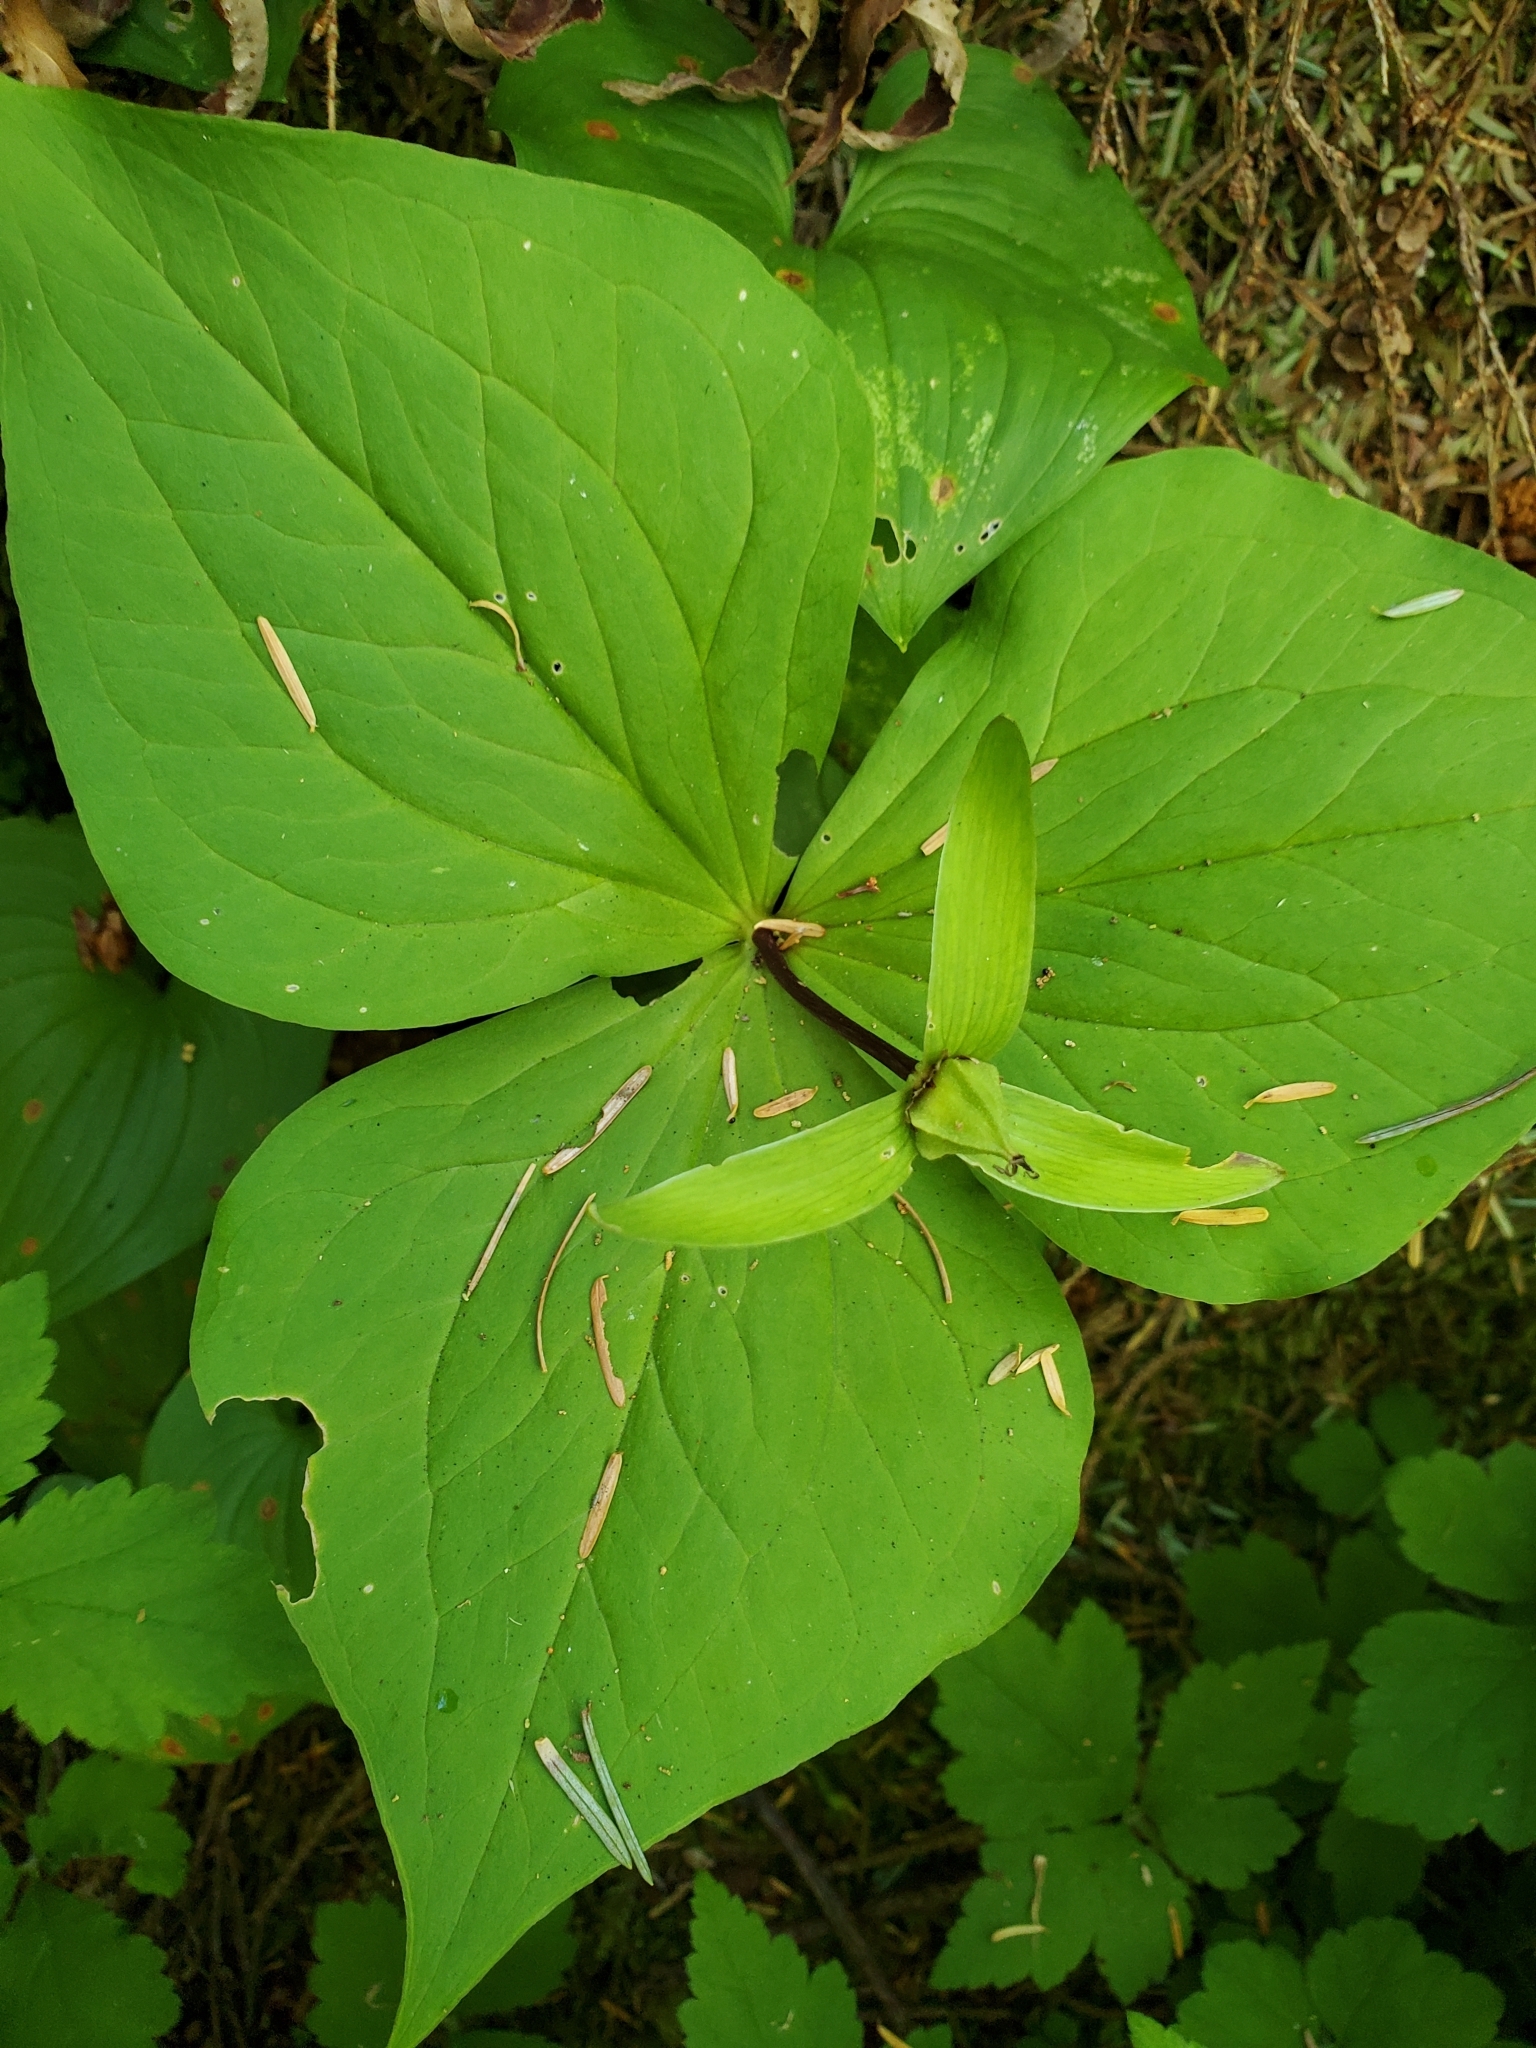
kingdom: Plantae
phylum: Tracheophyta
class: Liliopsida
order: Liliales
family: Melanthiaceae
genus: Trillium
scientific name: Trillium ovatum
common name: Pacific trillium
